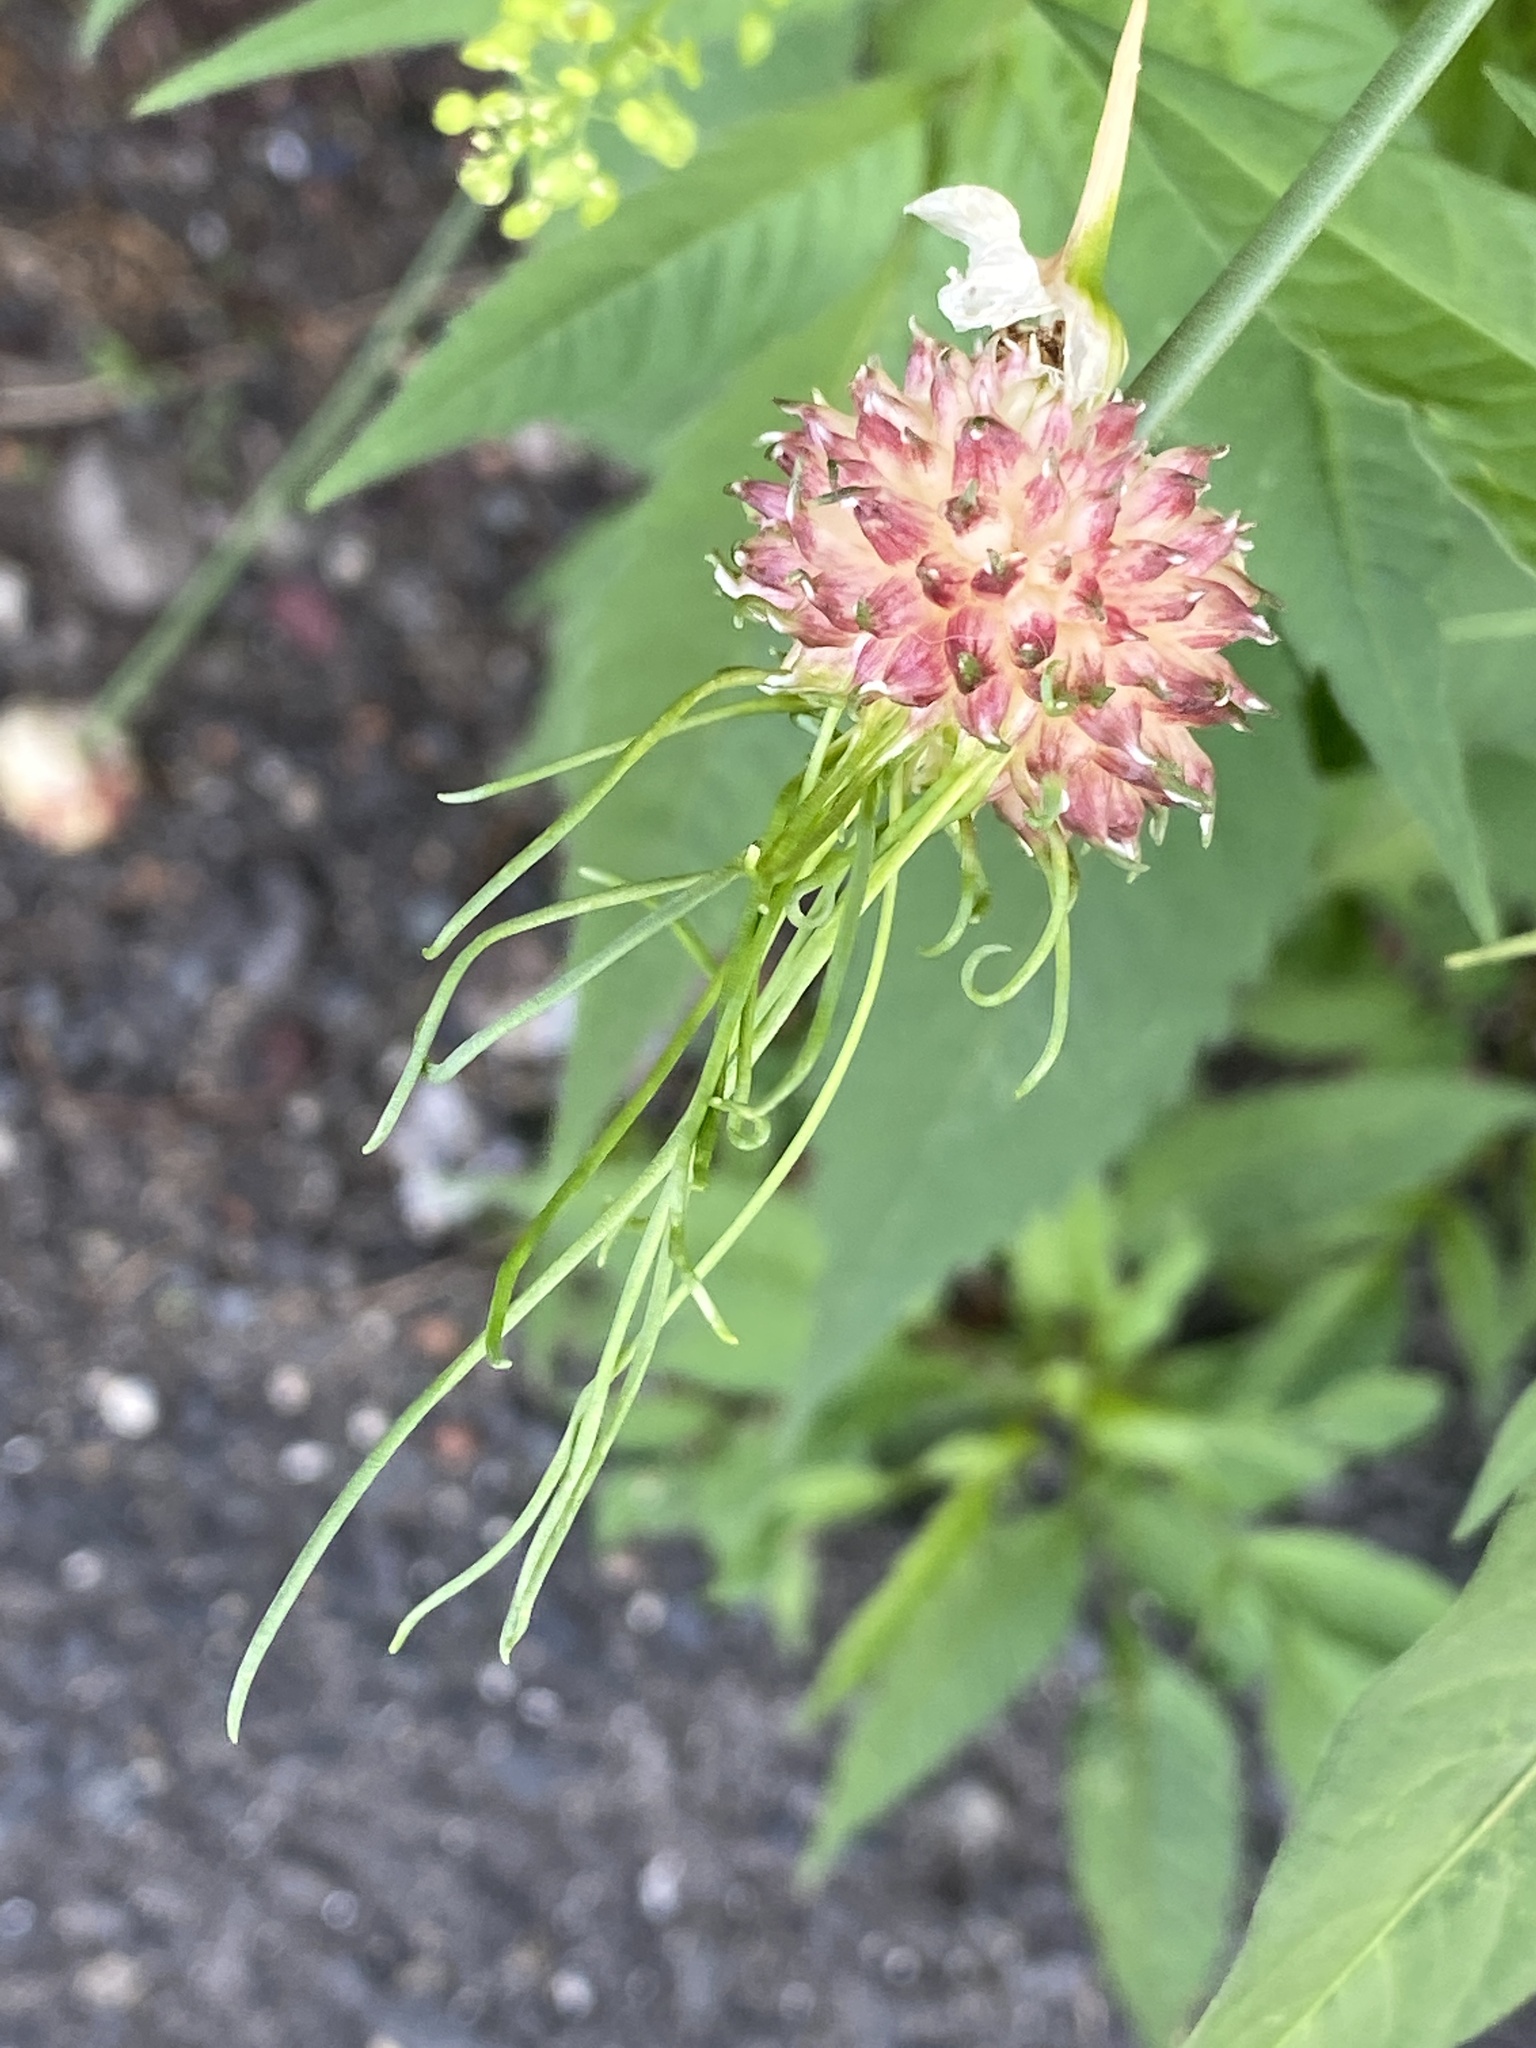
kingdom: Plantae
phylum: Tracheophyta
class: Liliopsida
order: Asparagales
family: Amaryllidaceae
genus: Allium
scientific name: Allium vineale
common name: Crow garlic
